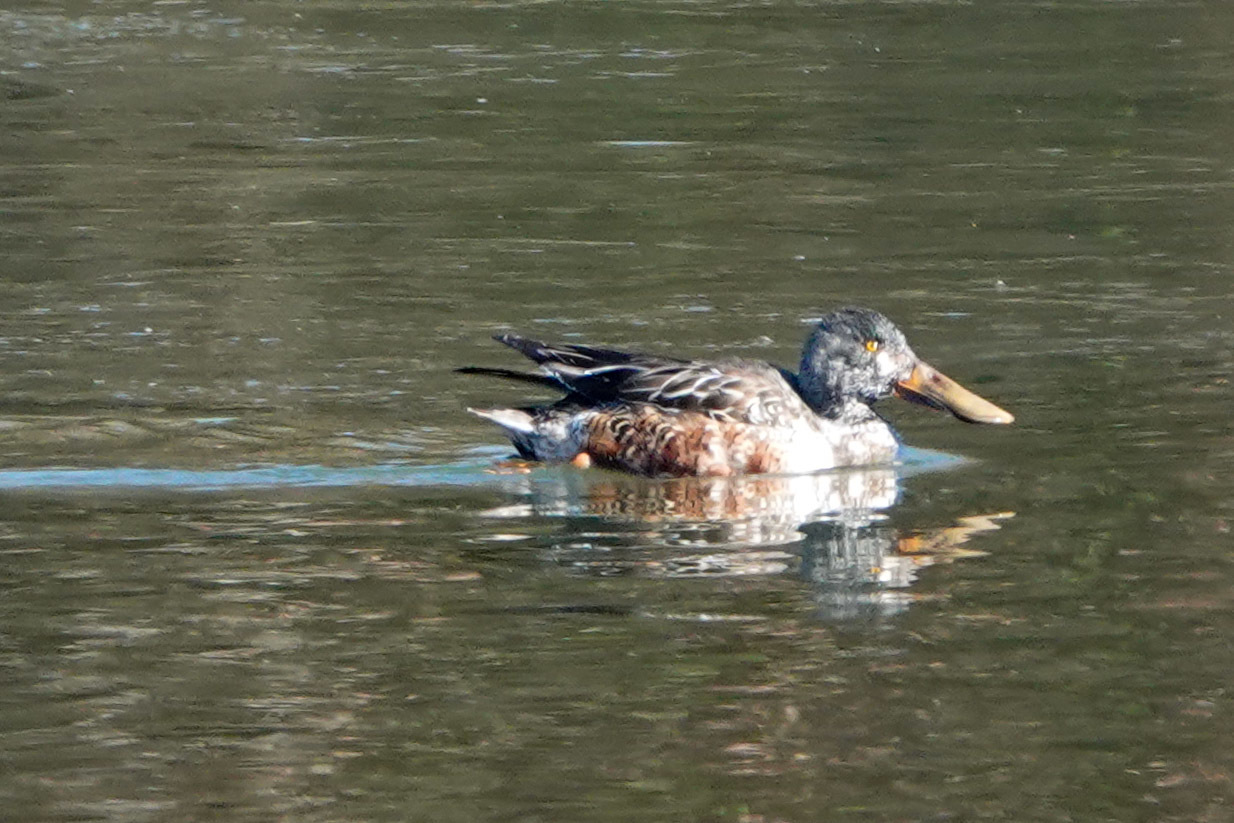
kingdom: Animalia
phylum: Chordata
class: Aves
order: Anseriformes
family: Anatidae
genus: Spatula
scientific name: Spatula clypeata
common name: Northern shoveler
